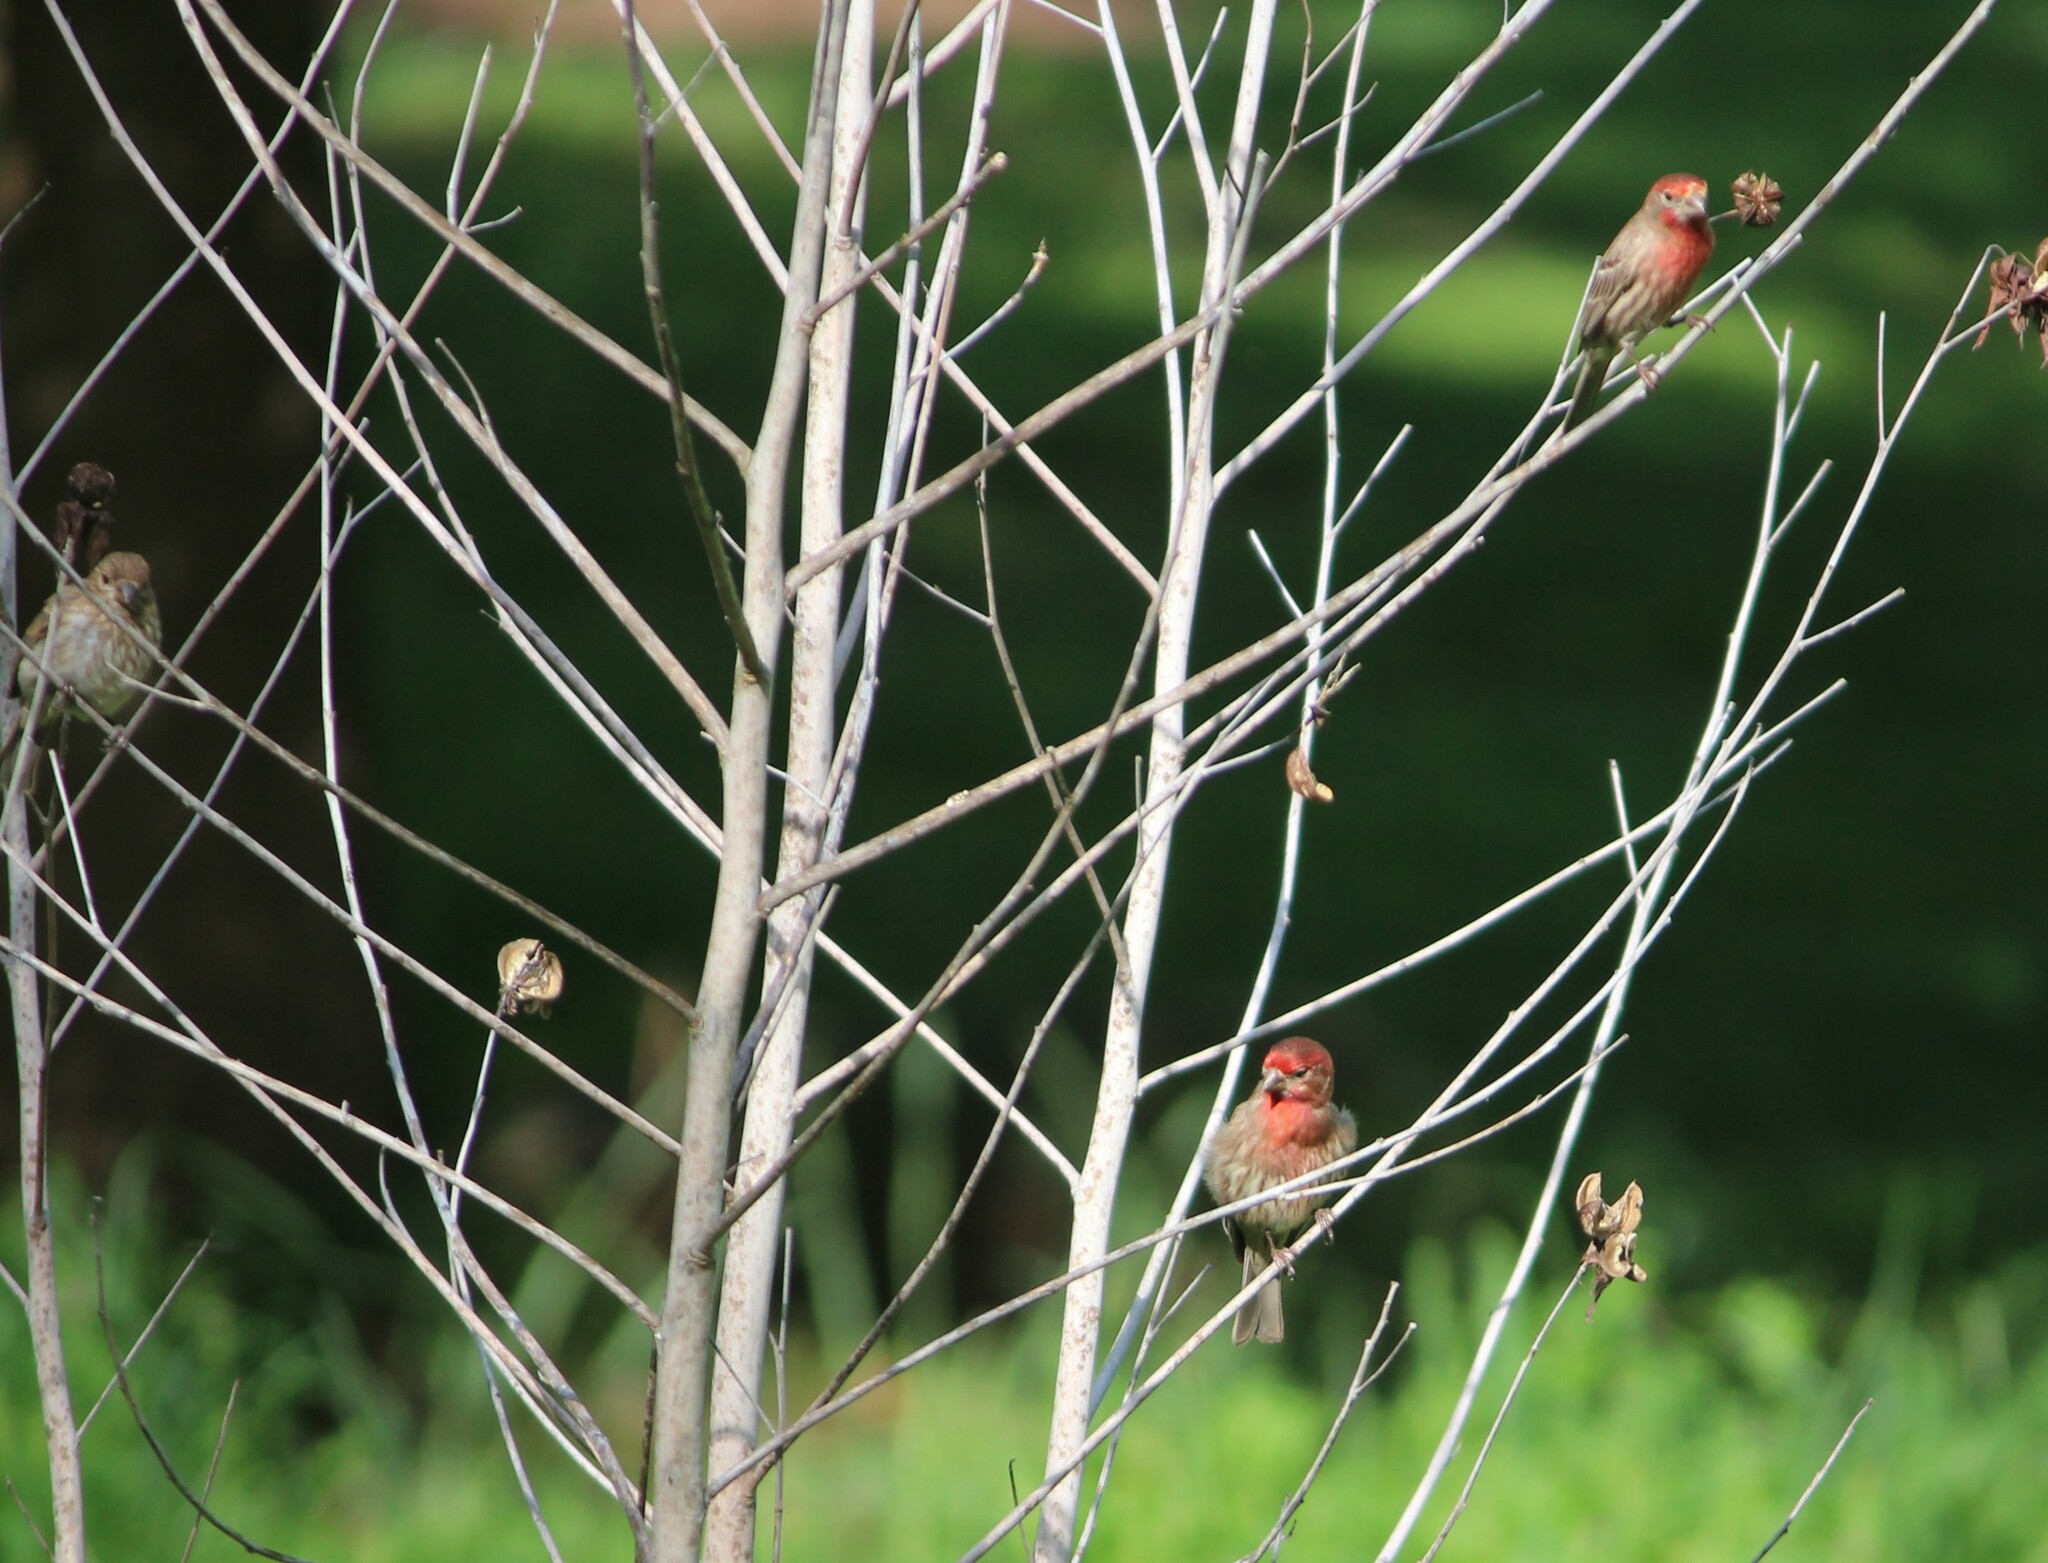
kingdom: Animalia
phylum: Chordata
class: Aves
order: Passeriformes
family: Fringillidae
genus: Haemorhous
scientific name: Haemorhous mexicanus
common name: House finch
